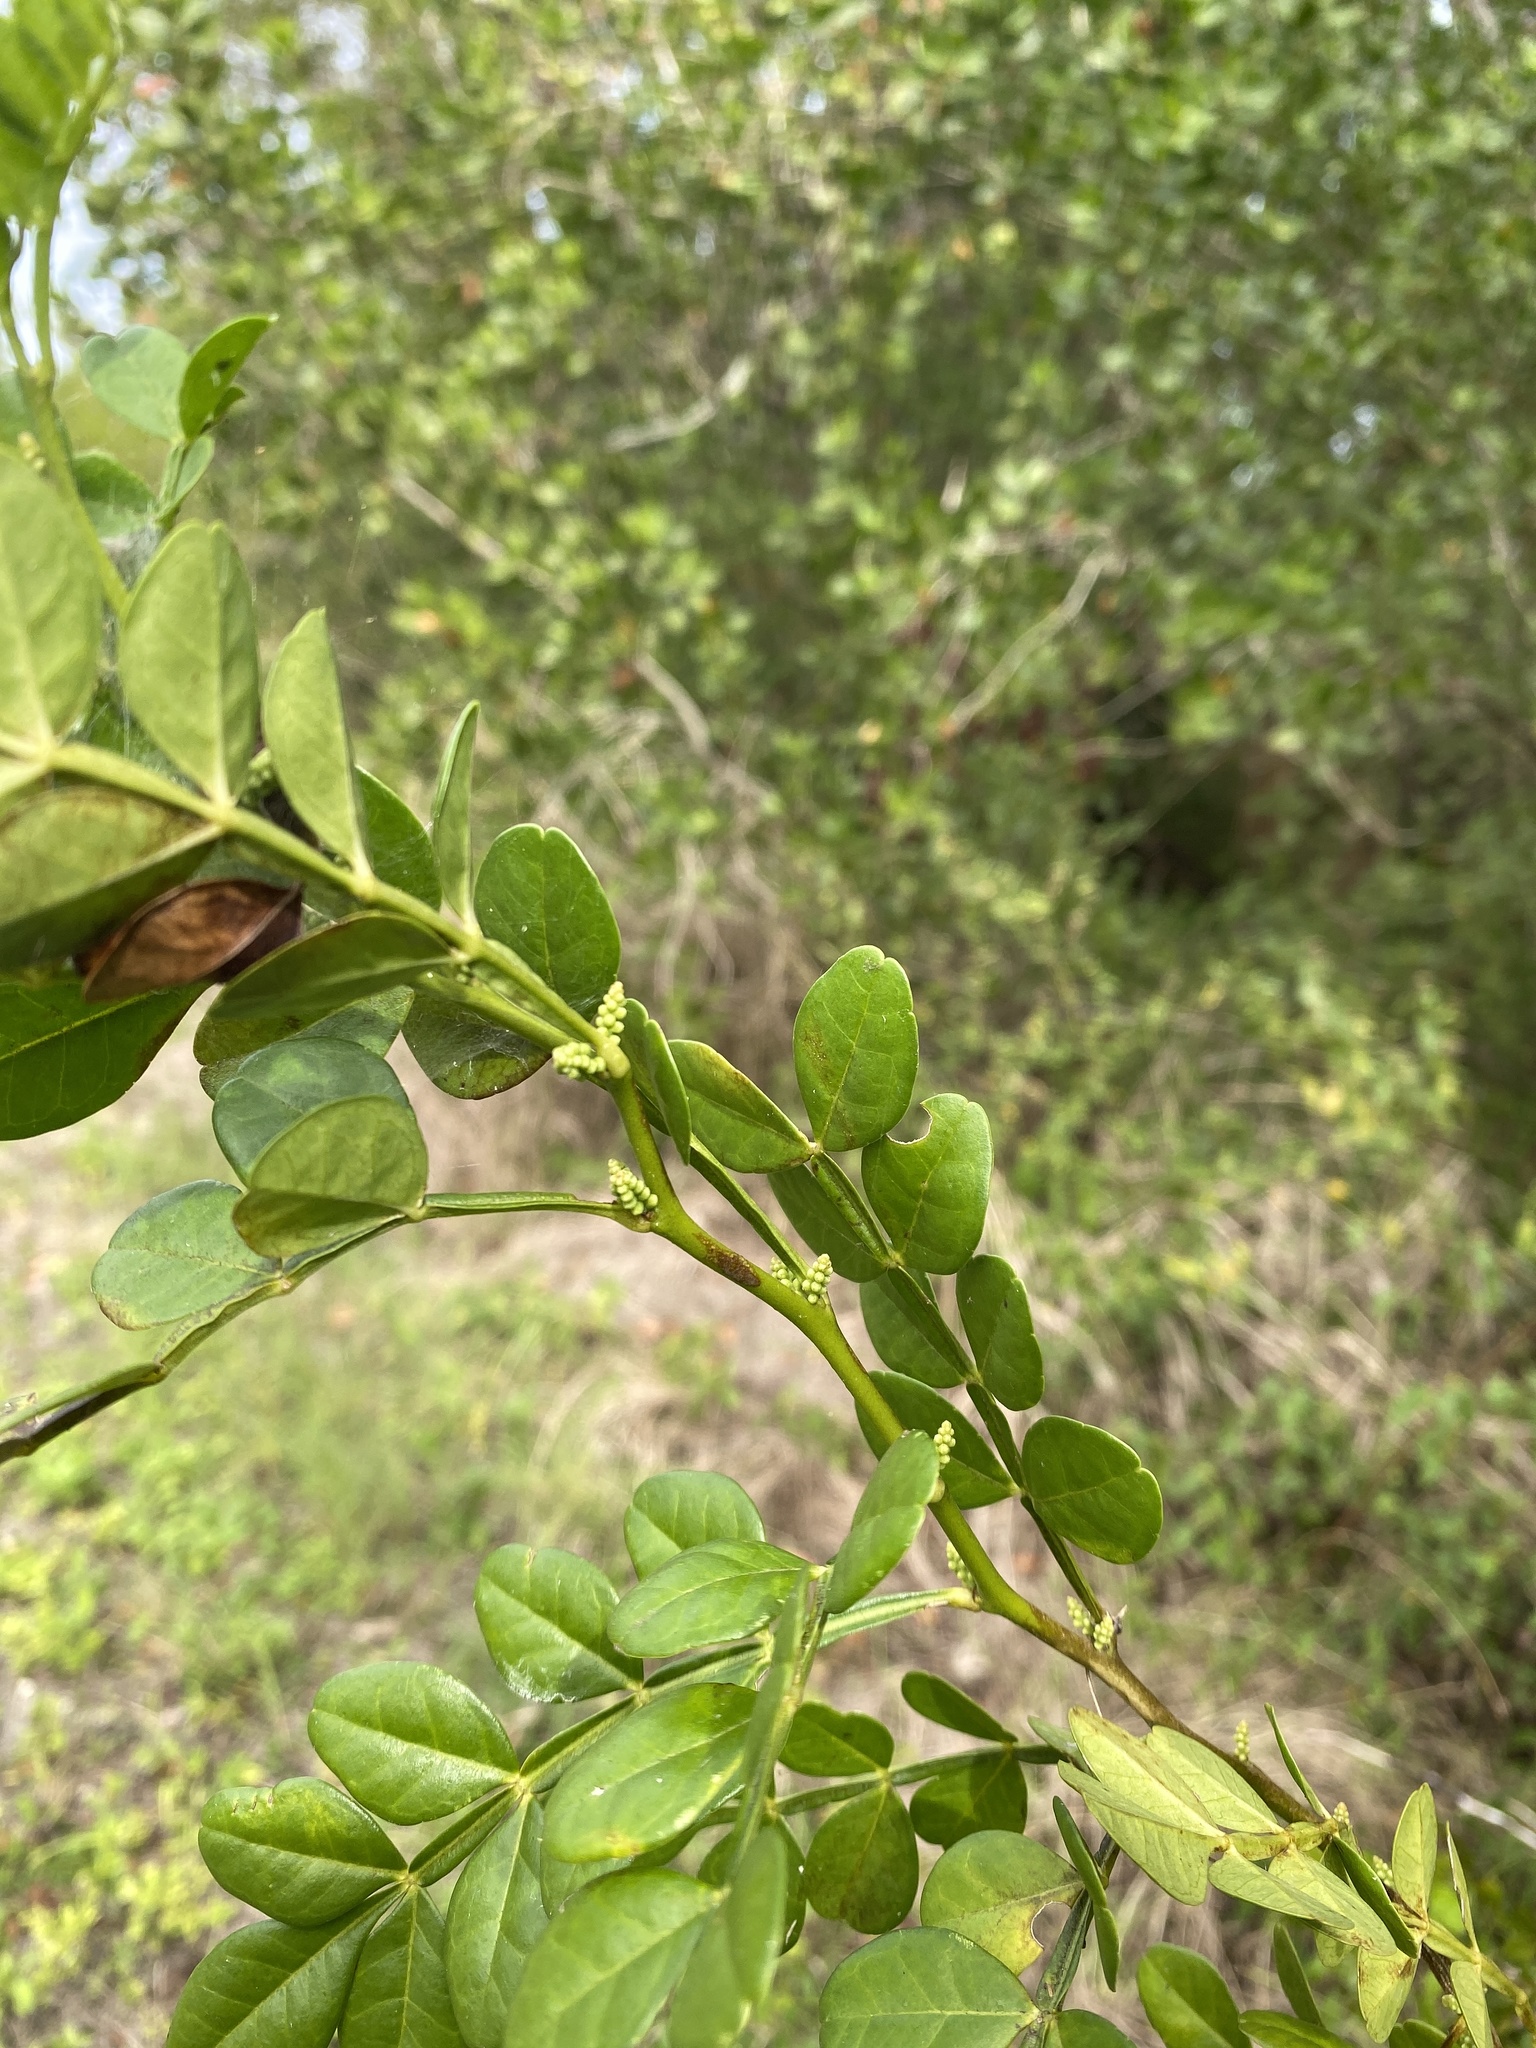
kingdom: Plantae
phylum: Tracheophyta
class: Magnoliopsida
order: Sapindales
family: Rutaceae
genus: Zanthoxylum
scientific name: Zanthoxylum fagara
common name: Lime prickly-ash
